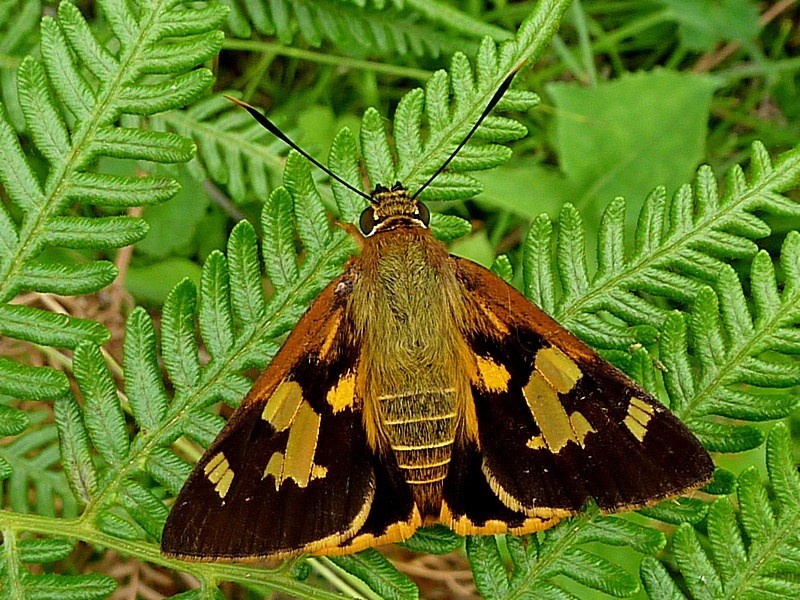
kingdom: Animalia
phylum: Arthropoda
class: Insecta
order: Lepidoptera
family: Hesperiidae
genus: Trapezites
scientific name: Trapezites symmomus
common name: Splendid ochre
